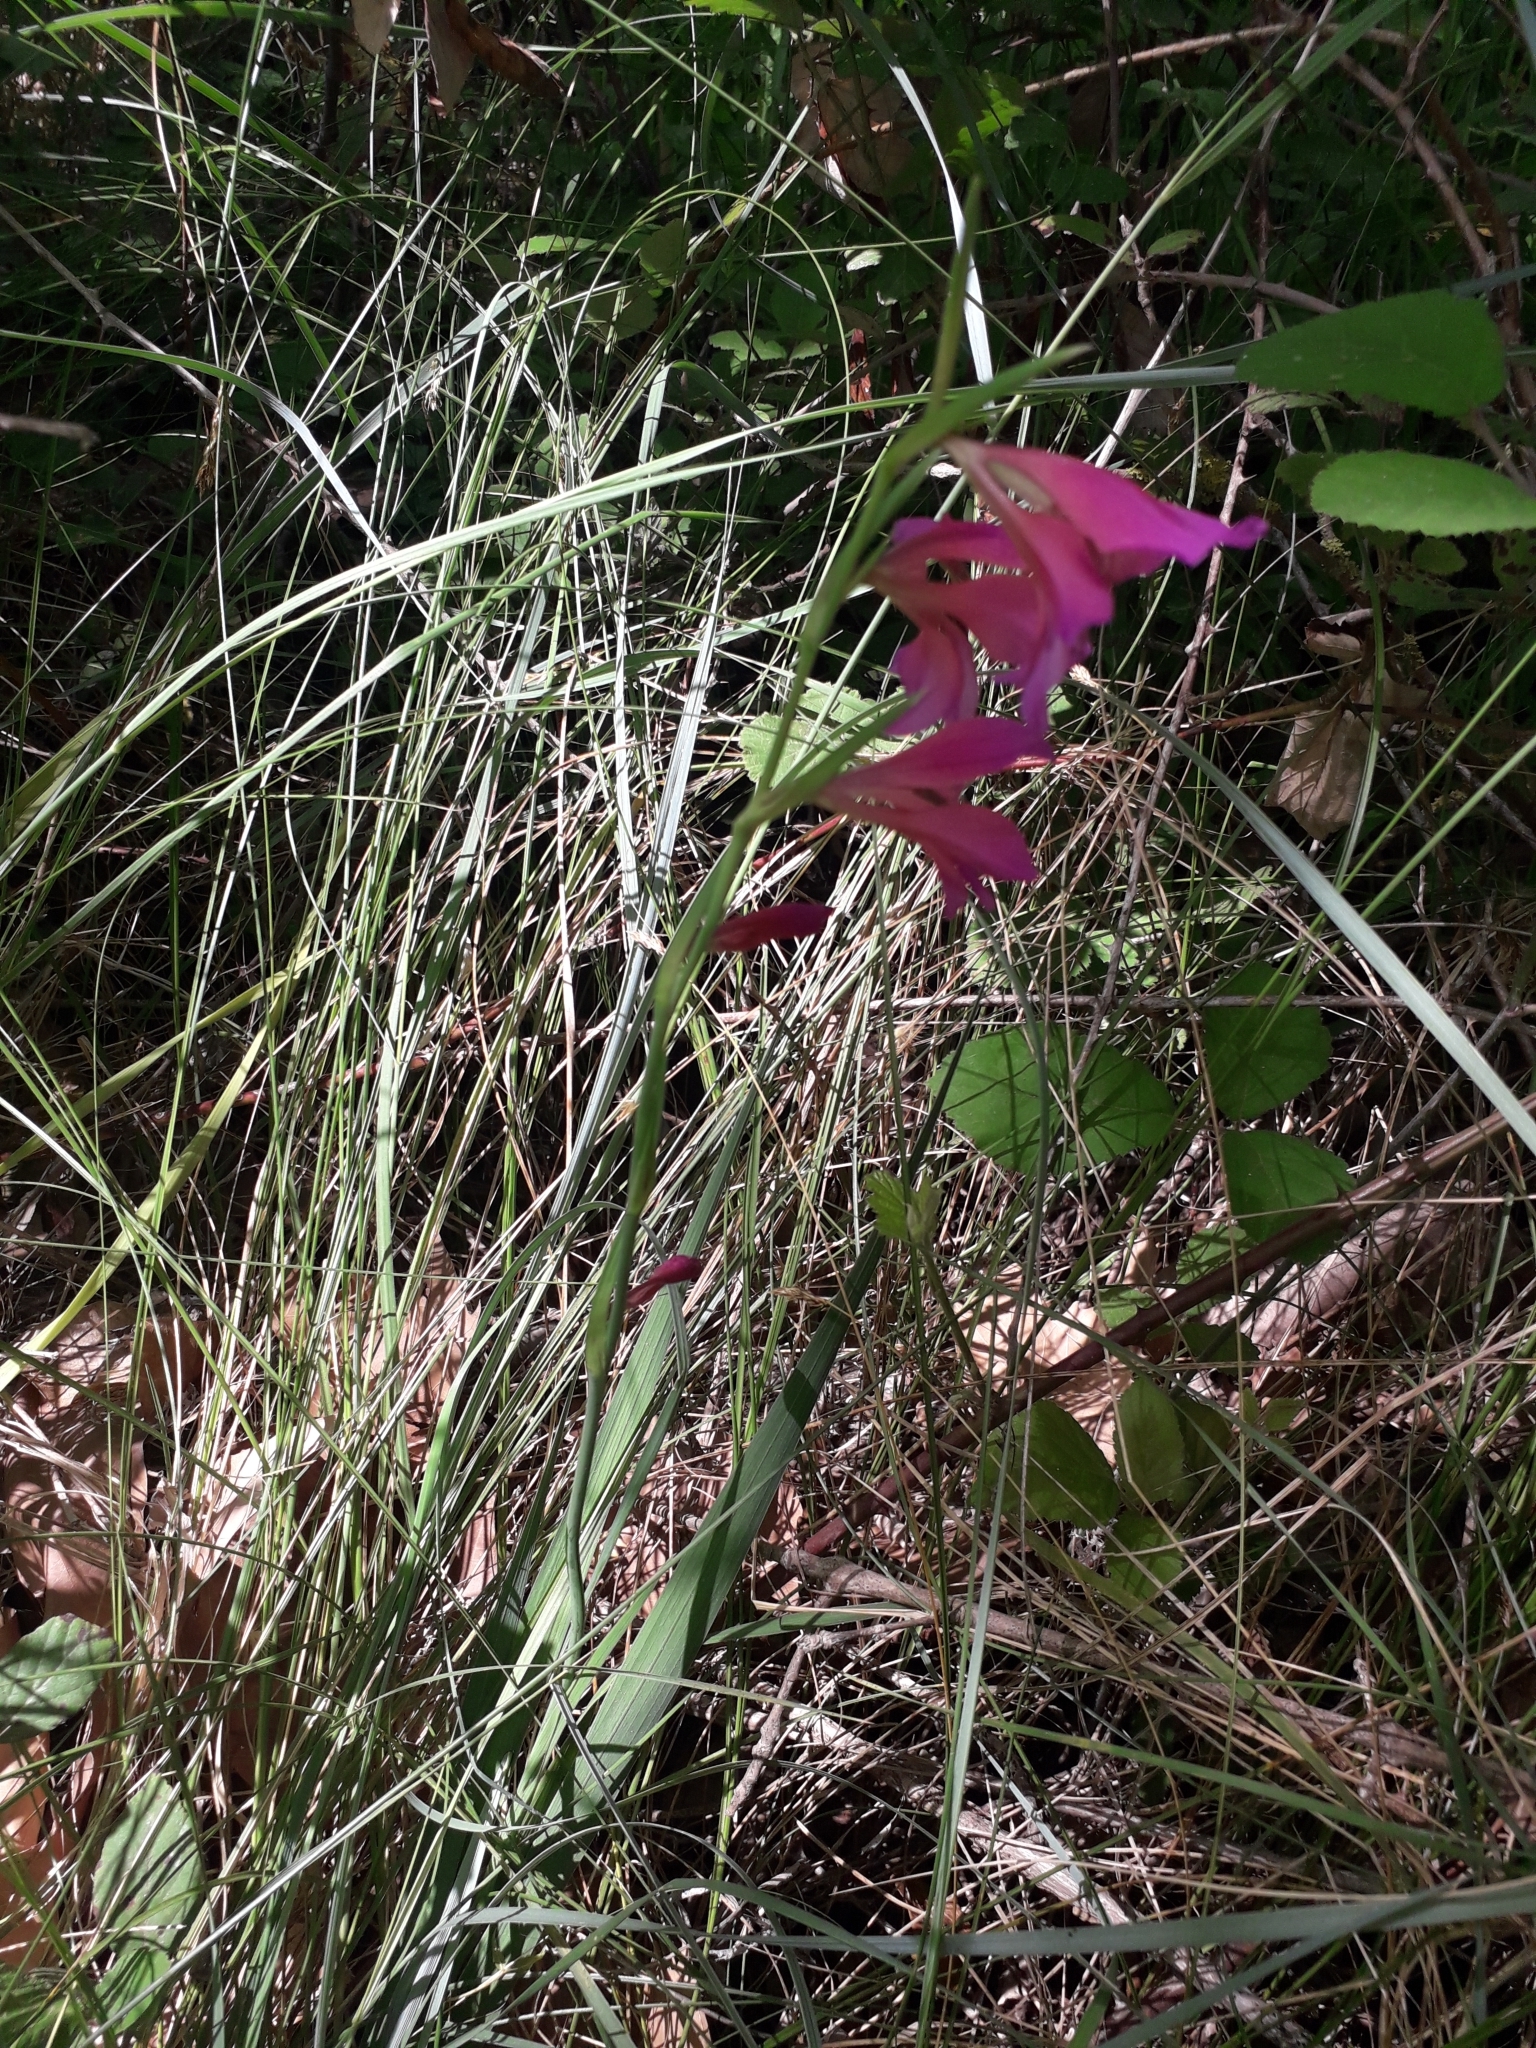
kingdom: Plantae
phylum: Tracheophyta
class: Liliopsida
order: Asparagales
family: Iridaceae
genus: Gladiolus
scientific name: Gladiolus dubius
